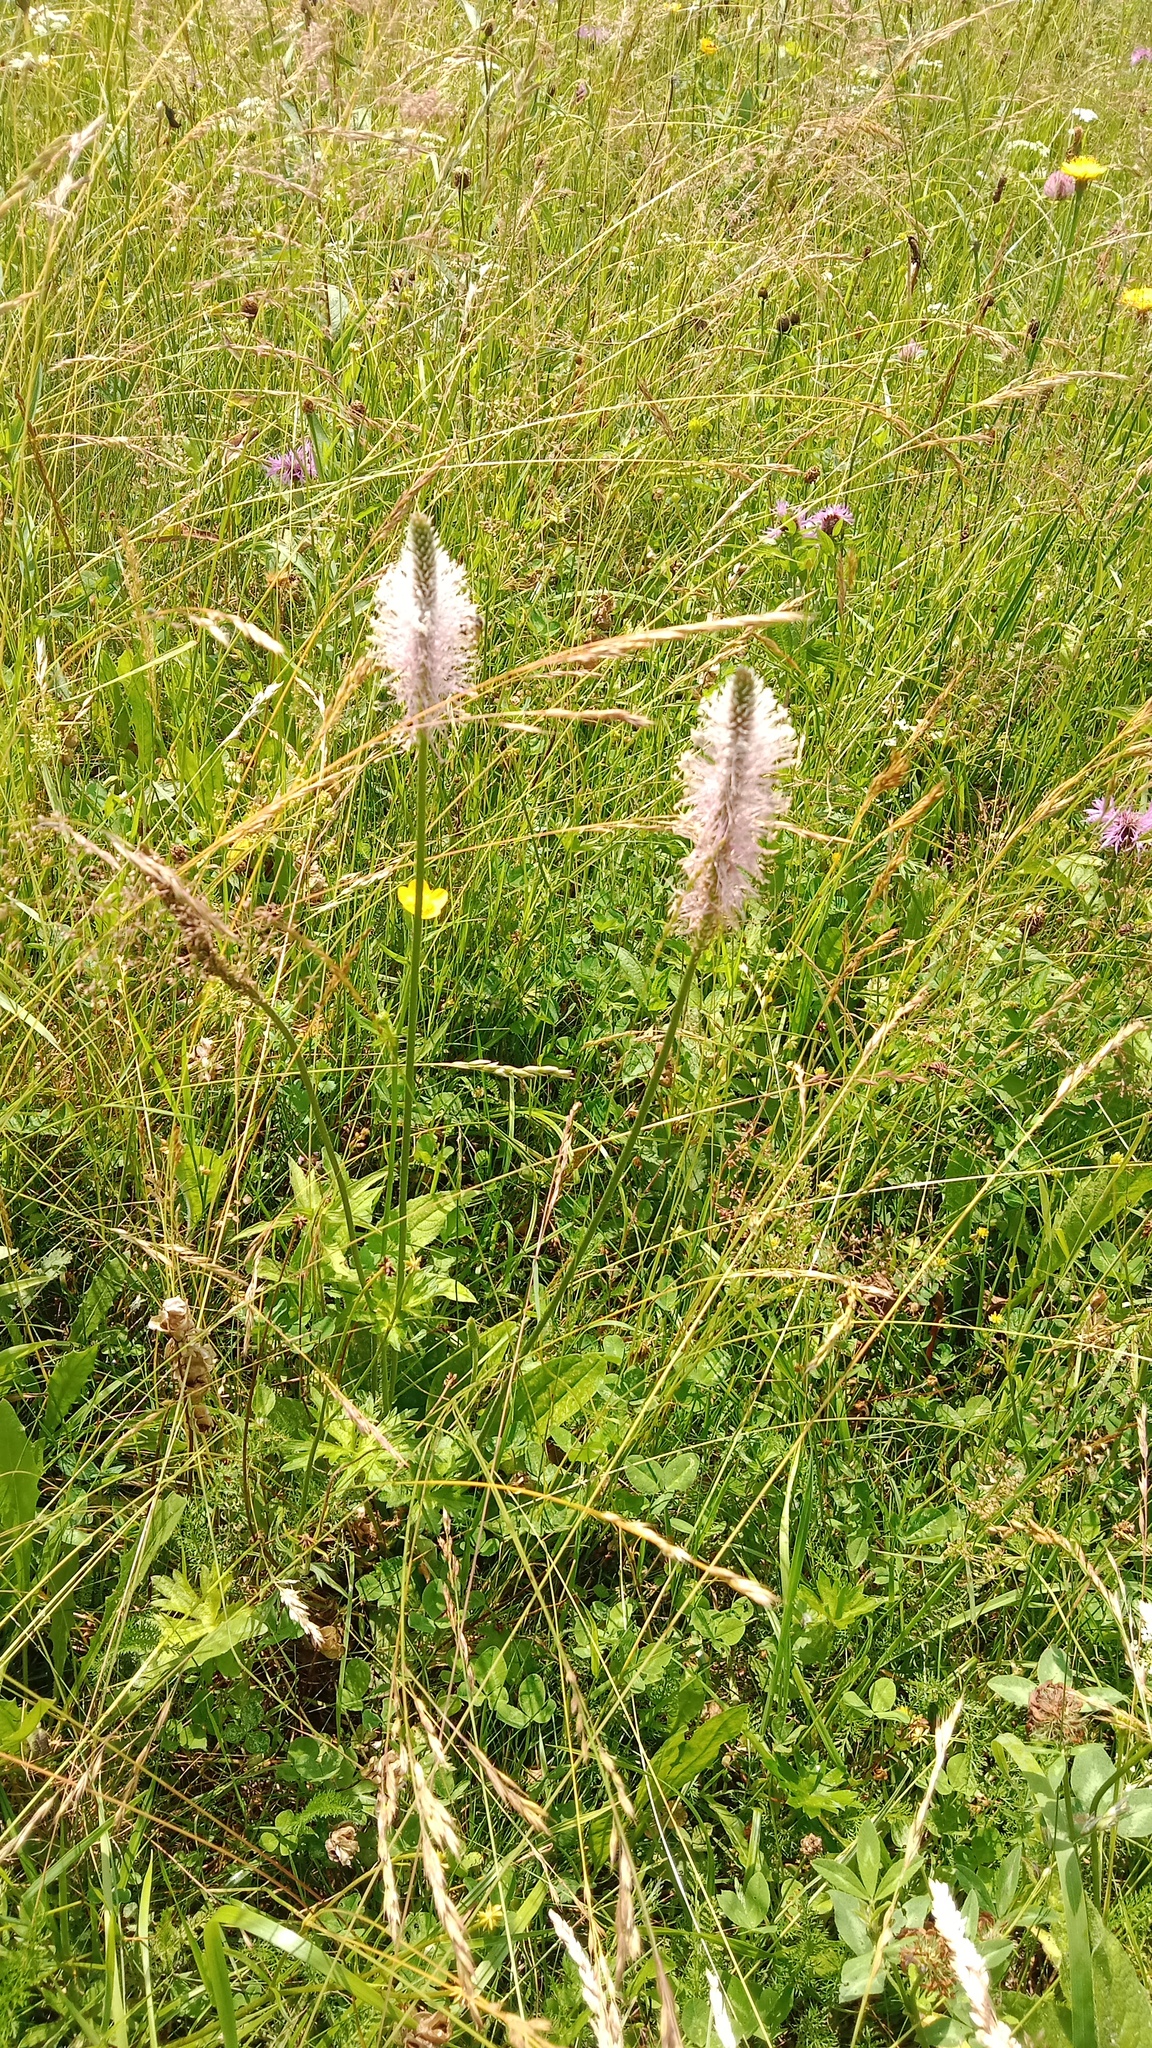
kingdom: Plantae
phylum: Tracheophyta
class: Magnoliopsida
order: Lamiales
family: Plantaginaceae
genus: Plantago
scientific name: Plantago media
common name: Hoary plantain
